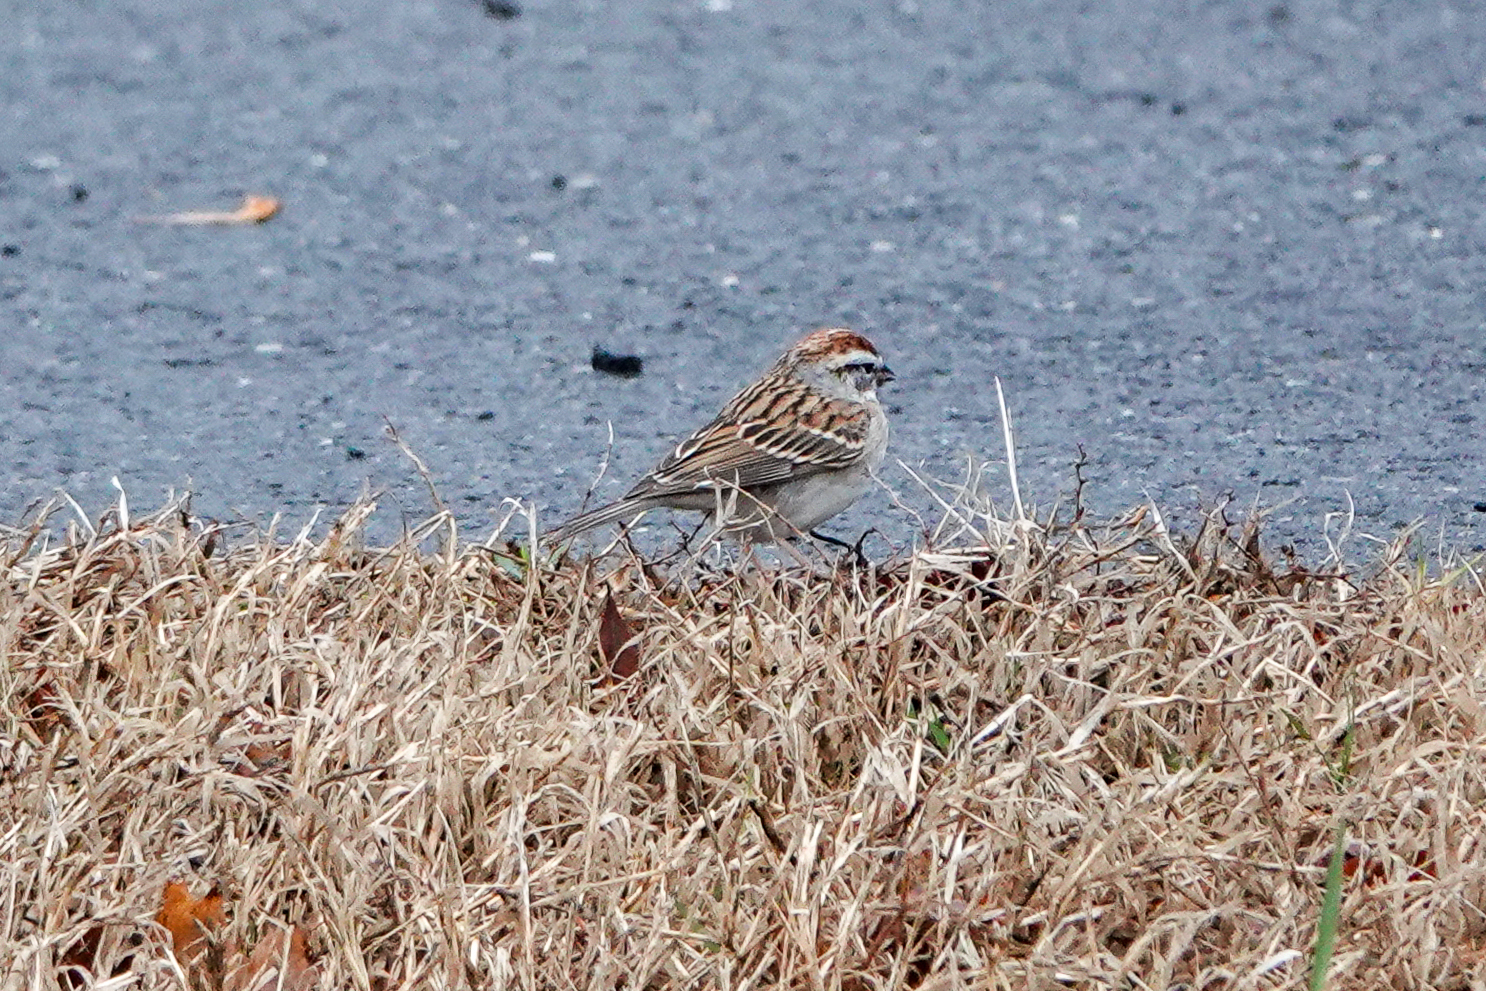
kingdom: Animalia
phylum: Chordata
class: Aves
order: Passeriformes
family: Passerellidae
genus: Spizella
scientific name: Spizella passerina
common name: Chipping sparrow
